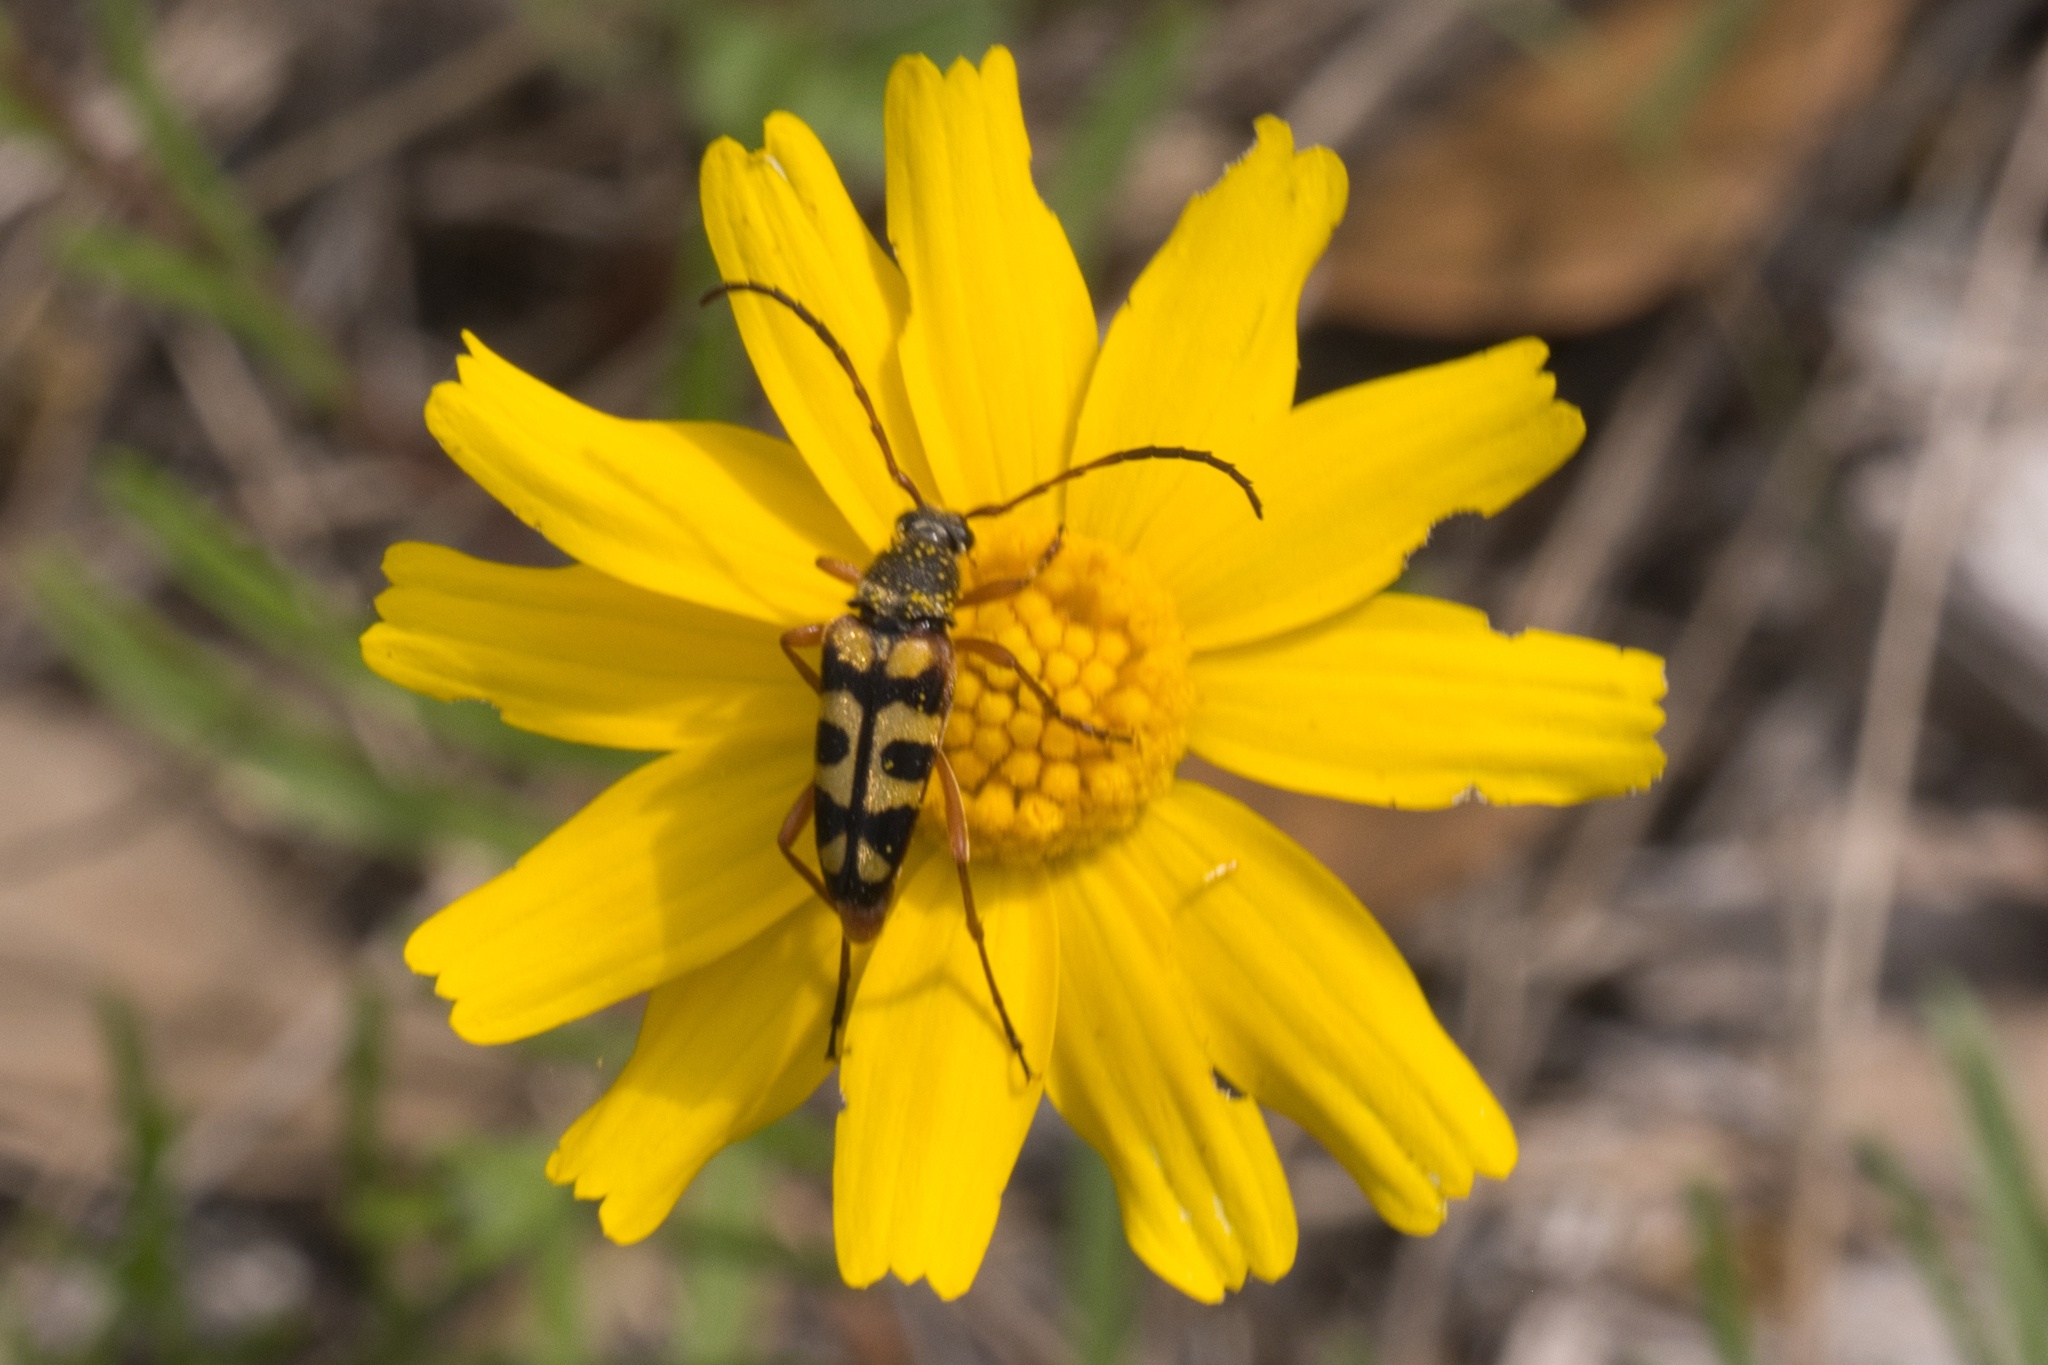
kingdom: Animalia
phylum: Arthropoda
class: Insecta
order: Coleoptera
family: Cerambycidae
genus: Typocerus
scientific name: Typocerus sinuatus
